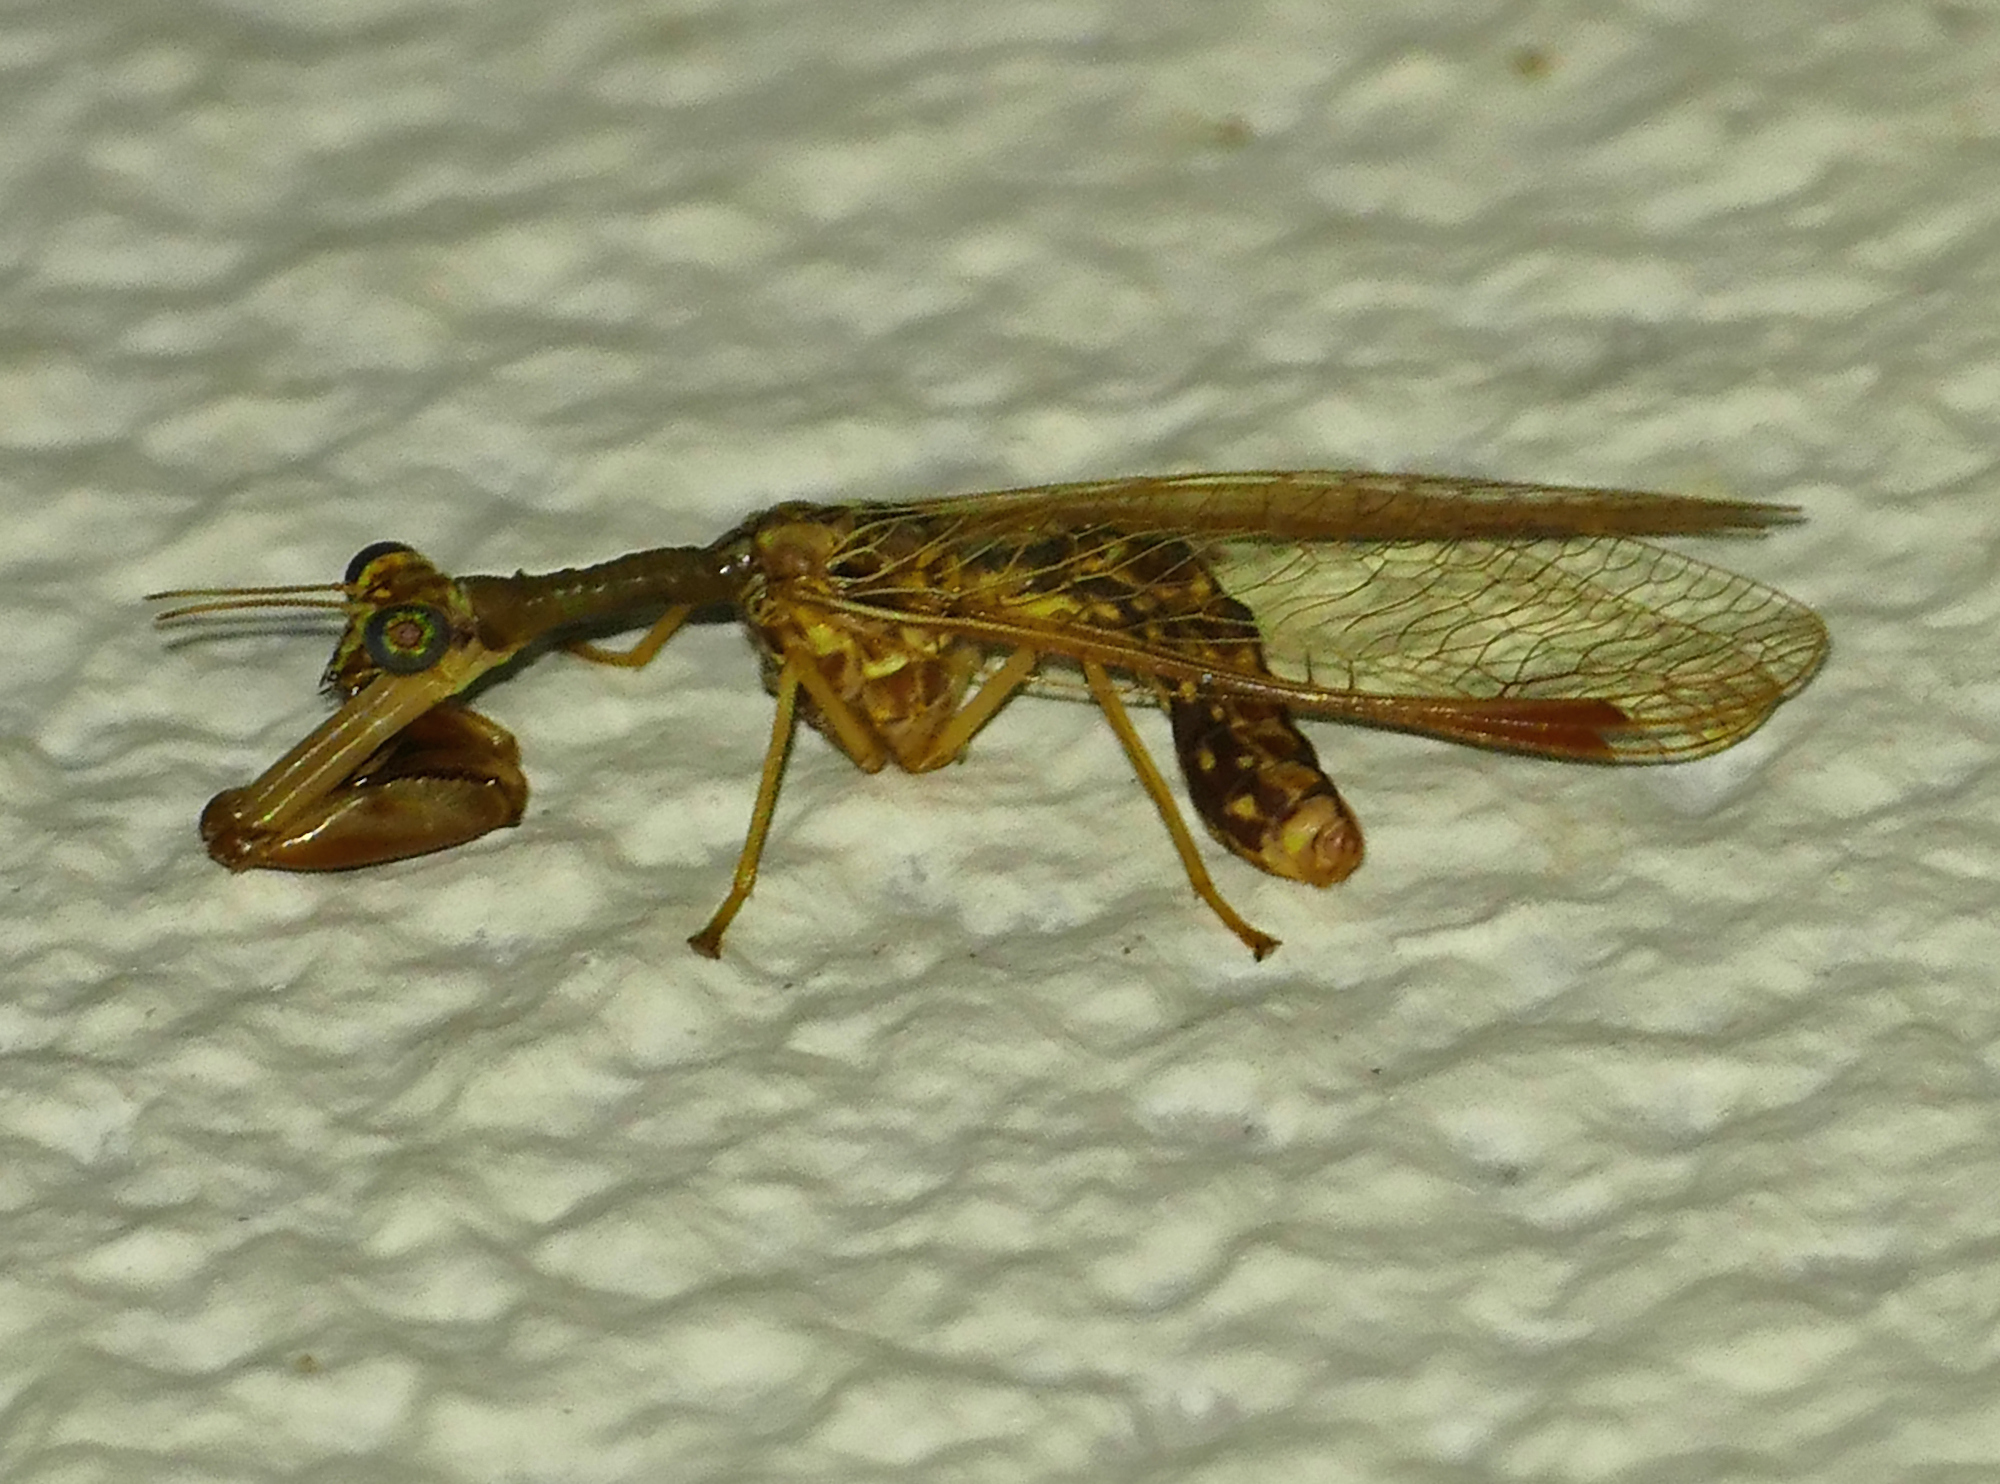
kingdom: Animalia
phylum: Arthropoda
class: Insecta
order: Neuroptera
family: Mantispidae
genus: Dicromantispa
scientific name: Dicromantispa sayi
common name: Say's mantidfly
